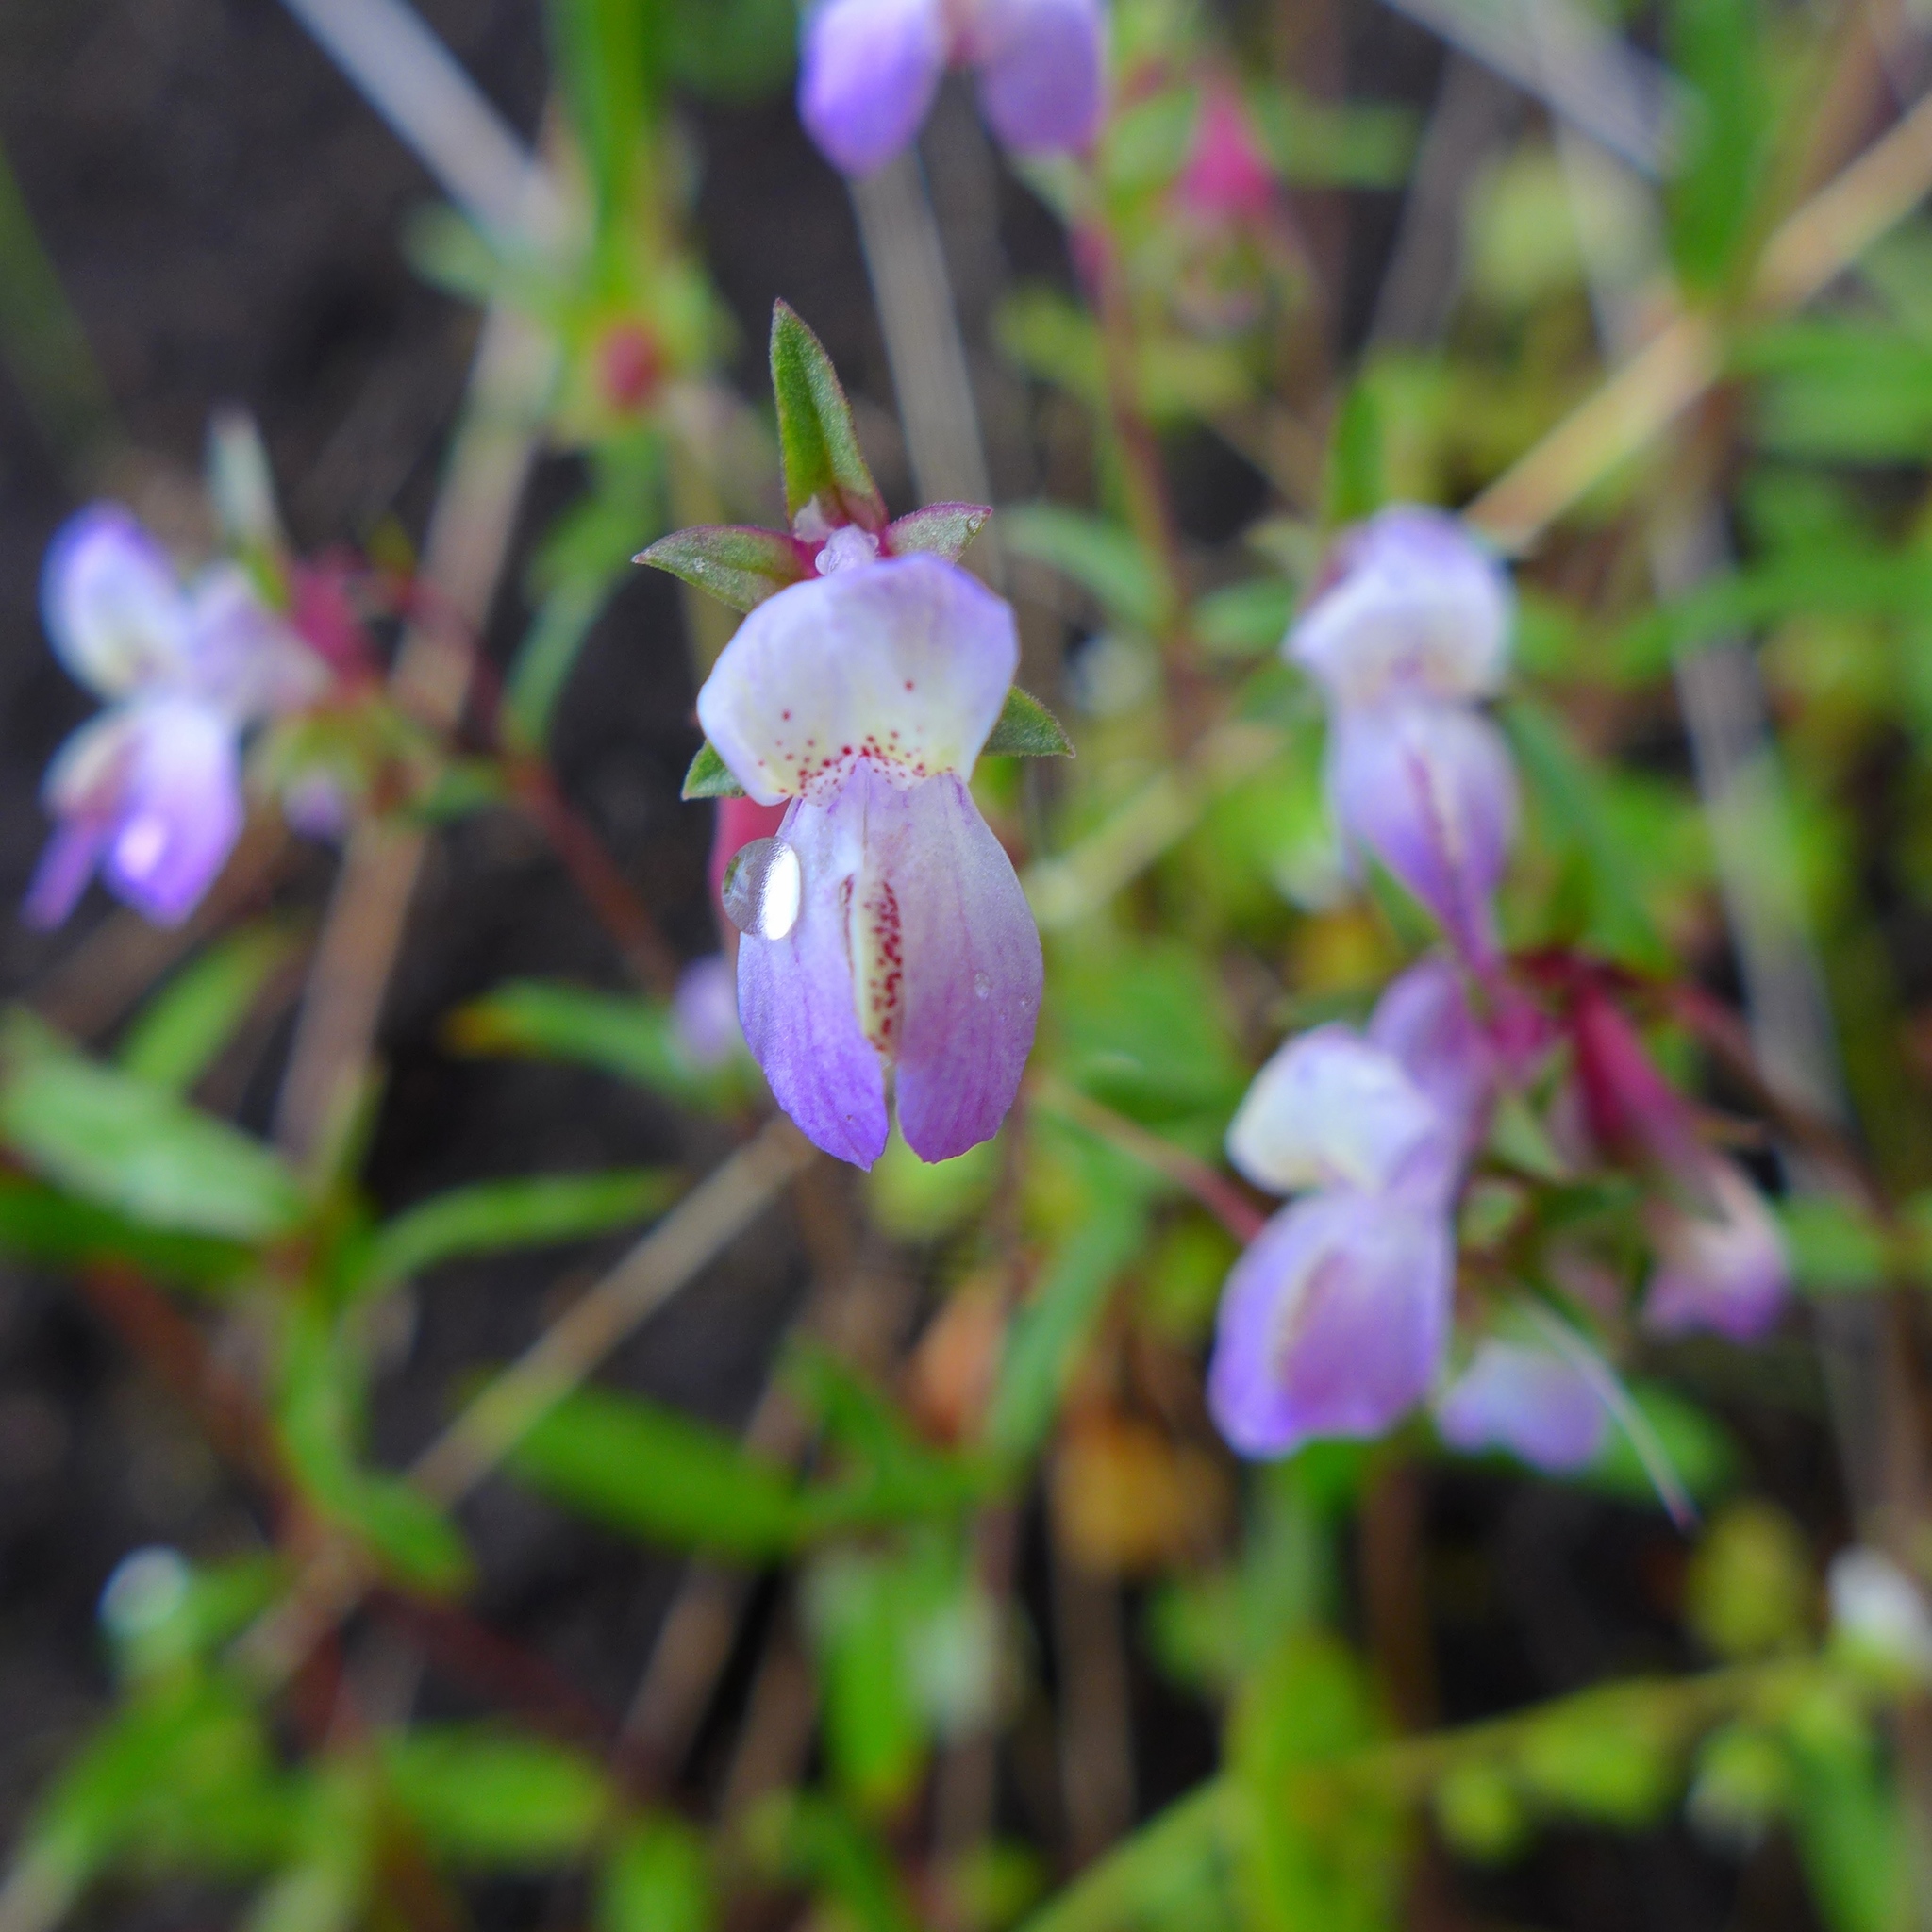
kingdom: Plantae
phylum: Tracheophyta
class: Magnoliopsida
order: Lamiales
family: Plantaginaceae
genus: Collinsia
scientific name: Collinsia sparsiflora
